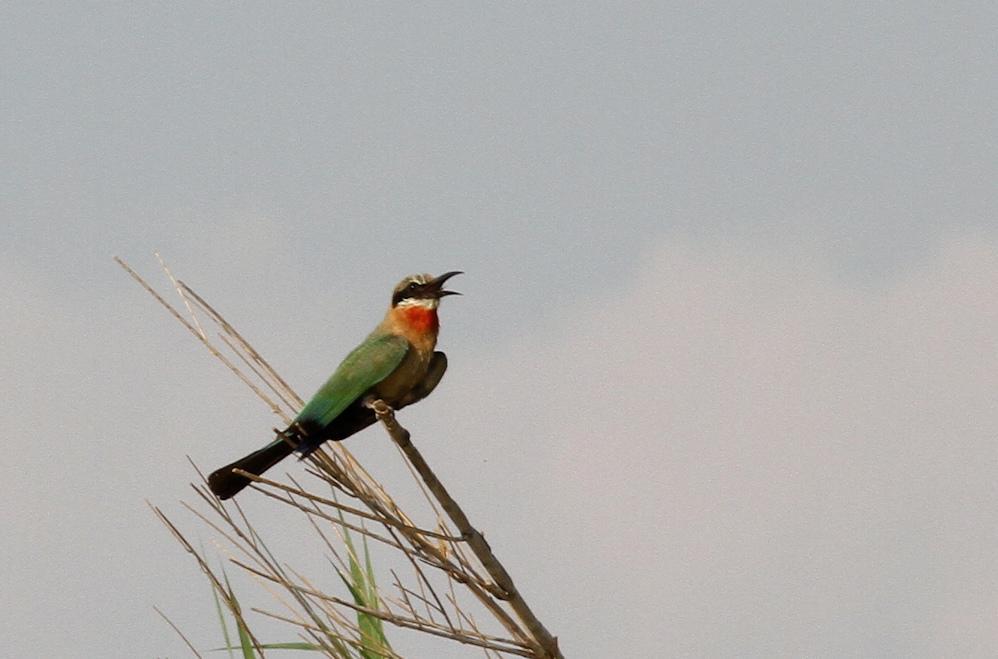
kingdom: Animalia
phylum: Chordata
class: Aves
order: Coraciiformes
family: Meropidae
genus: Merops
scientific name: Merops bullockoides
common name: White-fronted bee-eater
